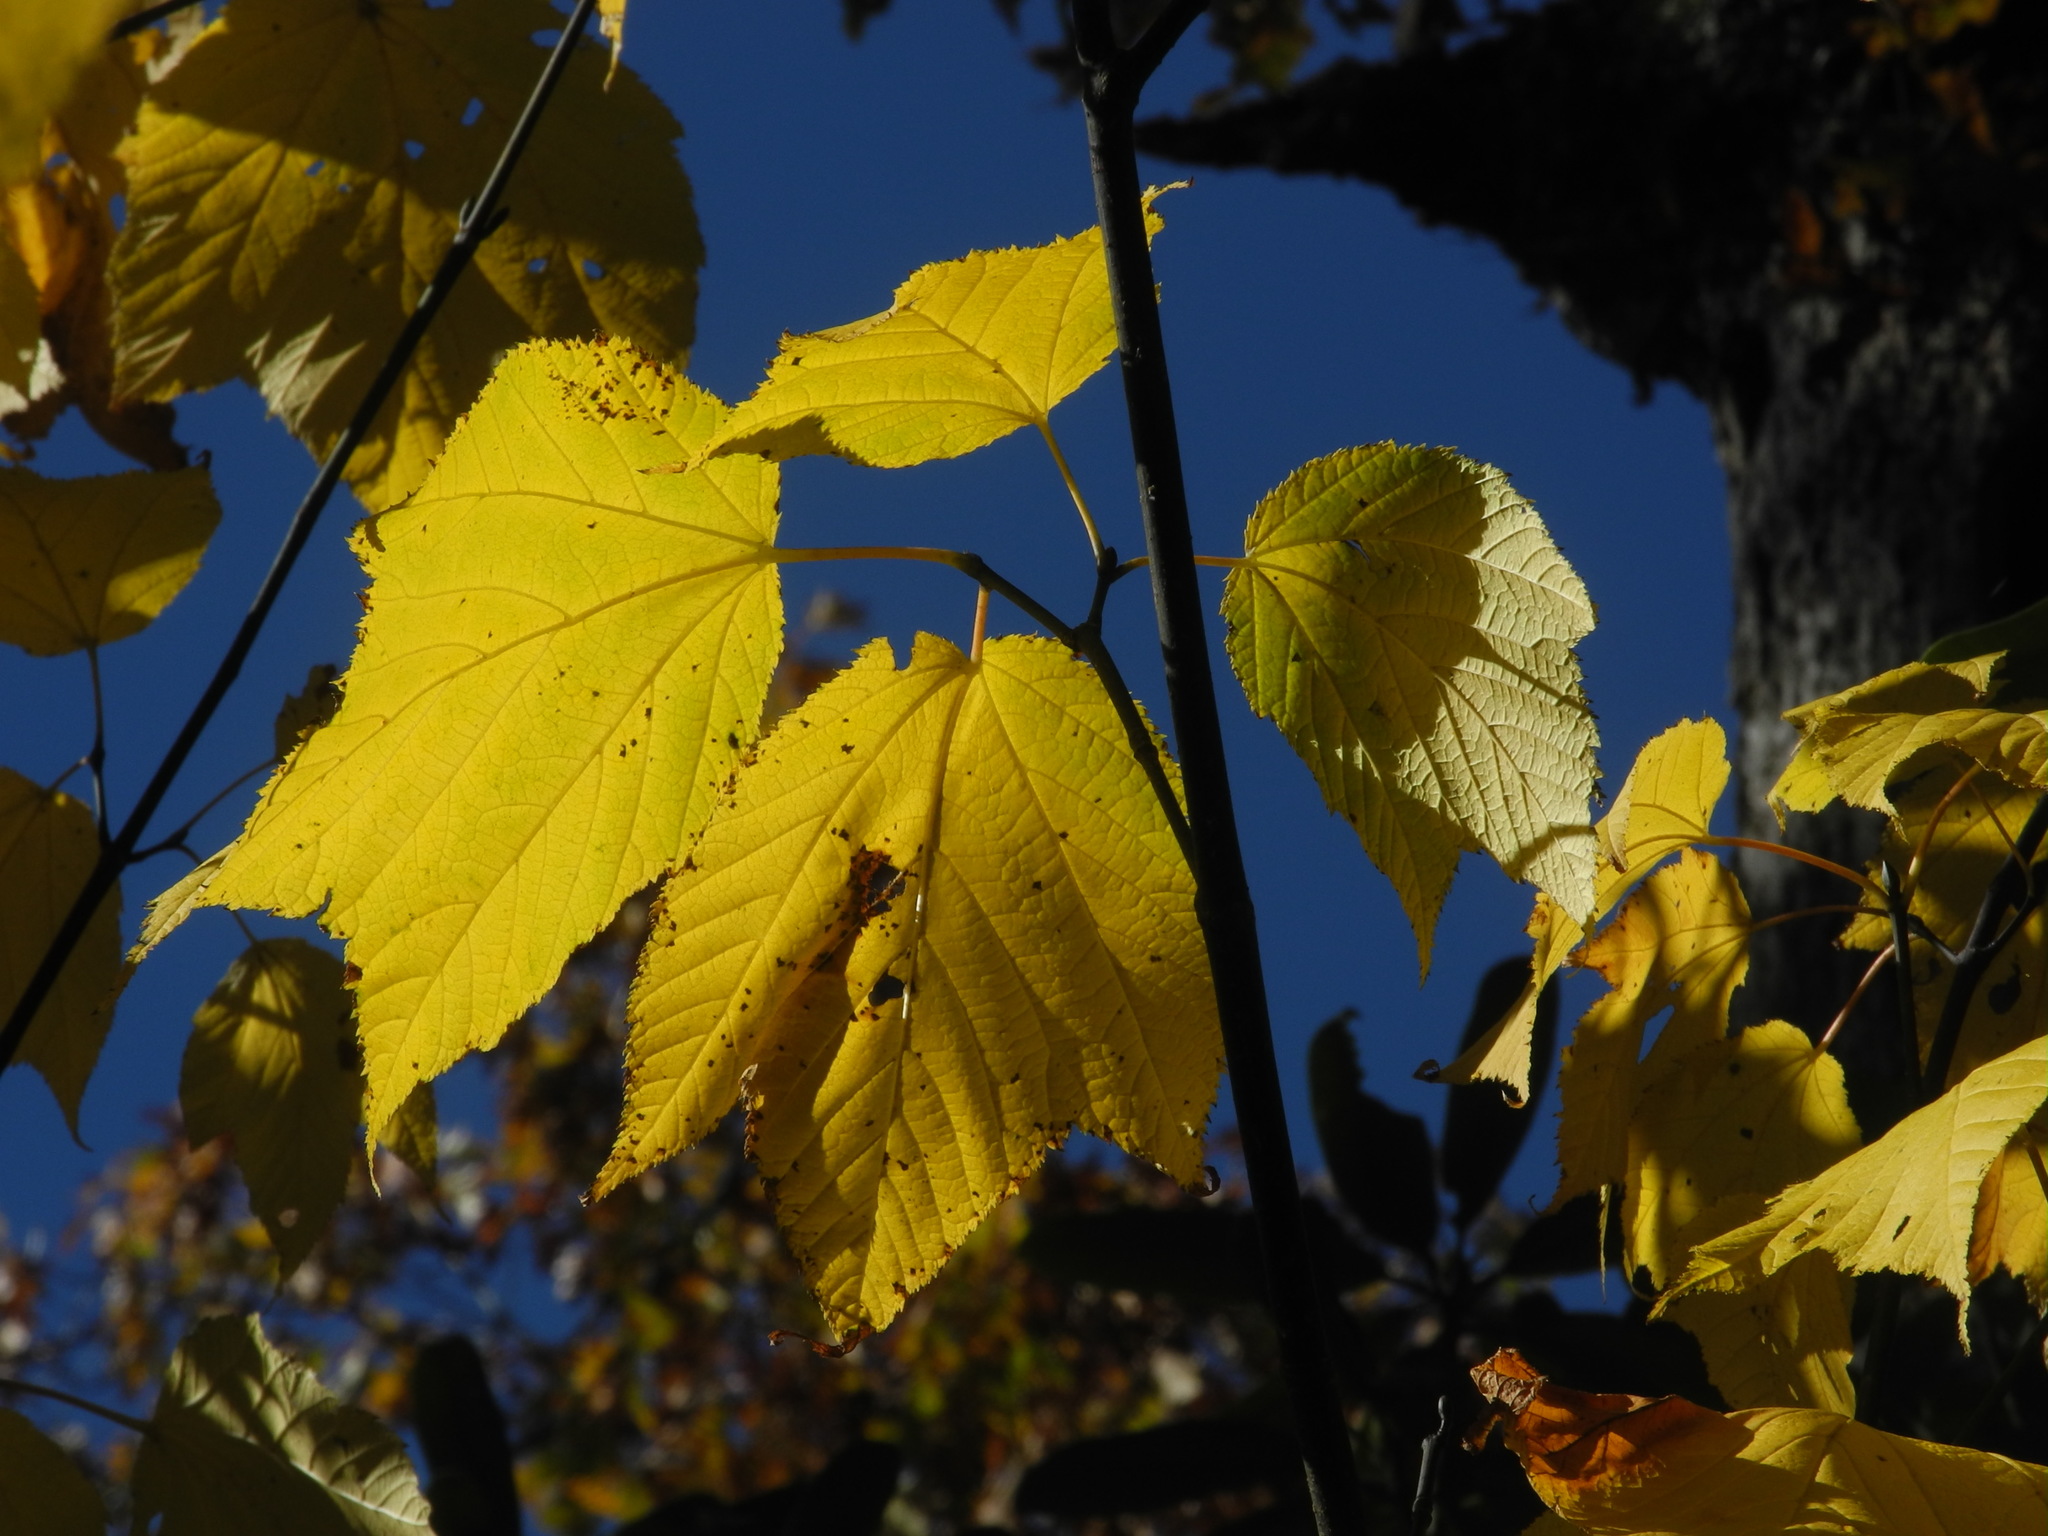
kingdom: Plantae
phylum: Tracheophyta
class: Magnoliopsida
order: Sapindales
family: Sapindaceae
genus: Acer
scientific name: Acer pensylvanicum
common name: Moosewood
